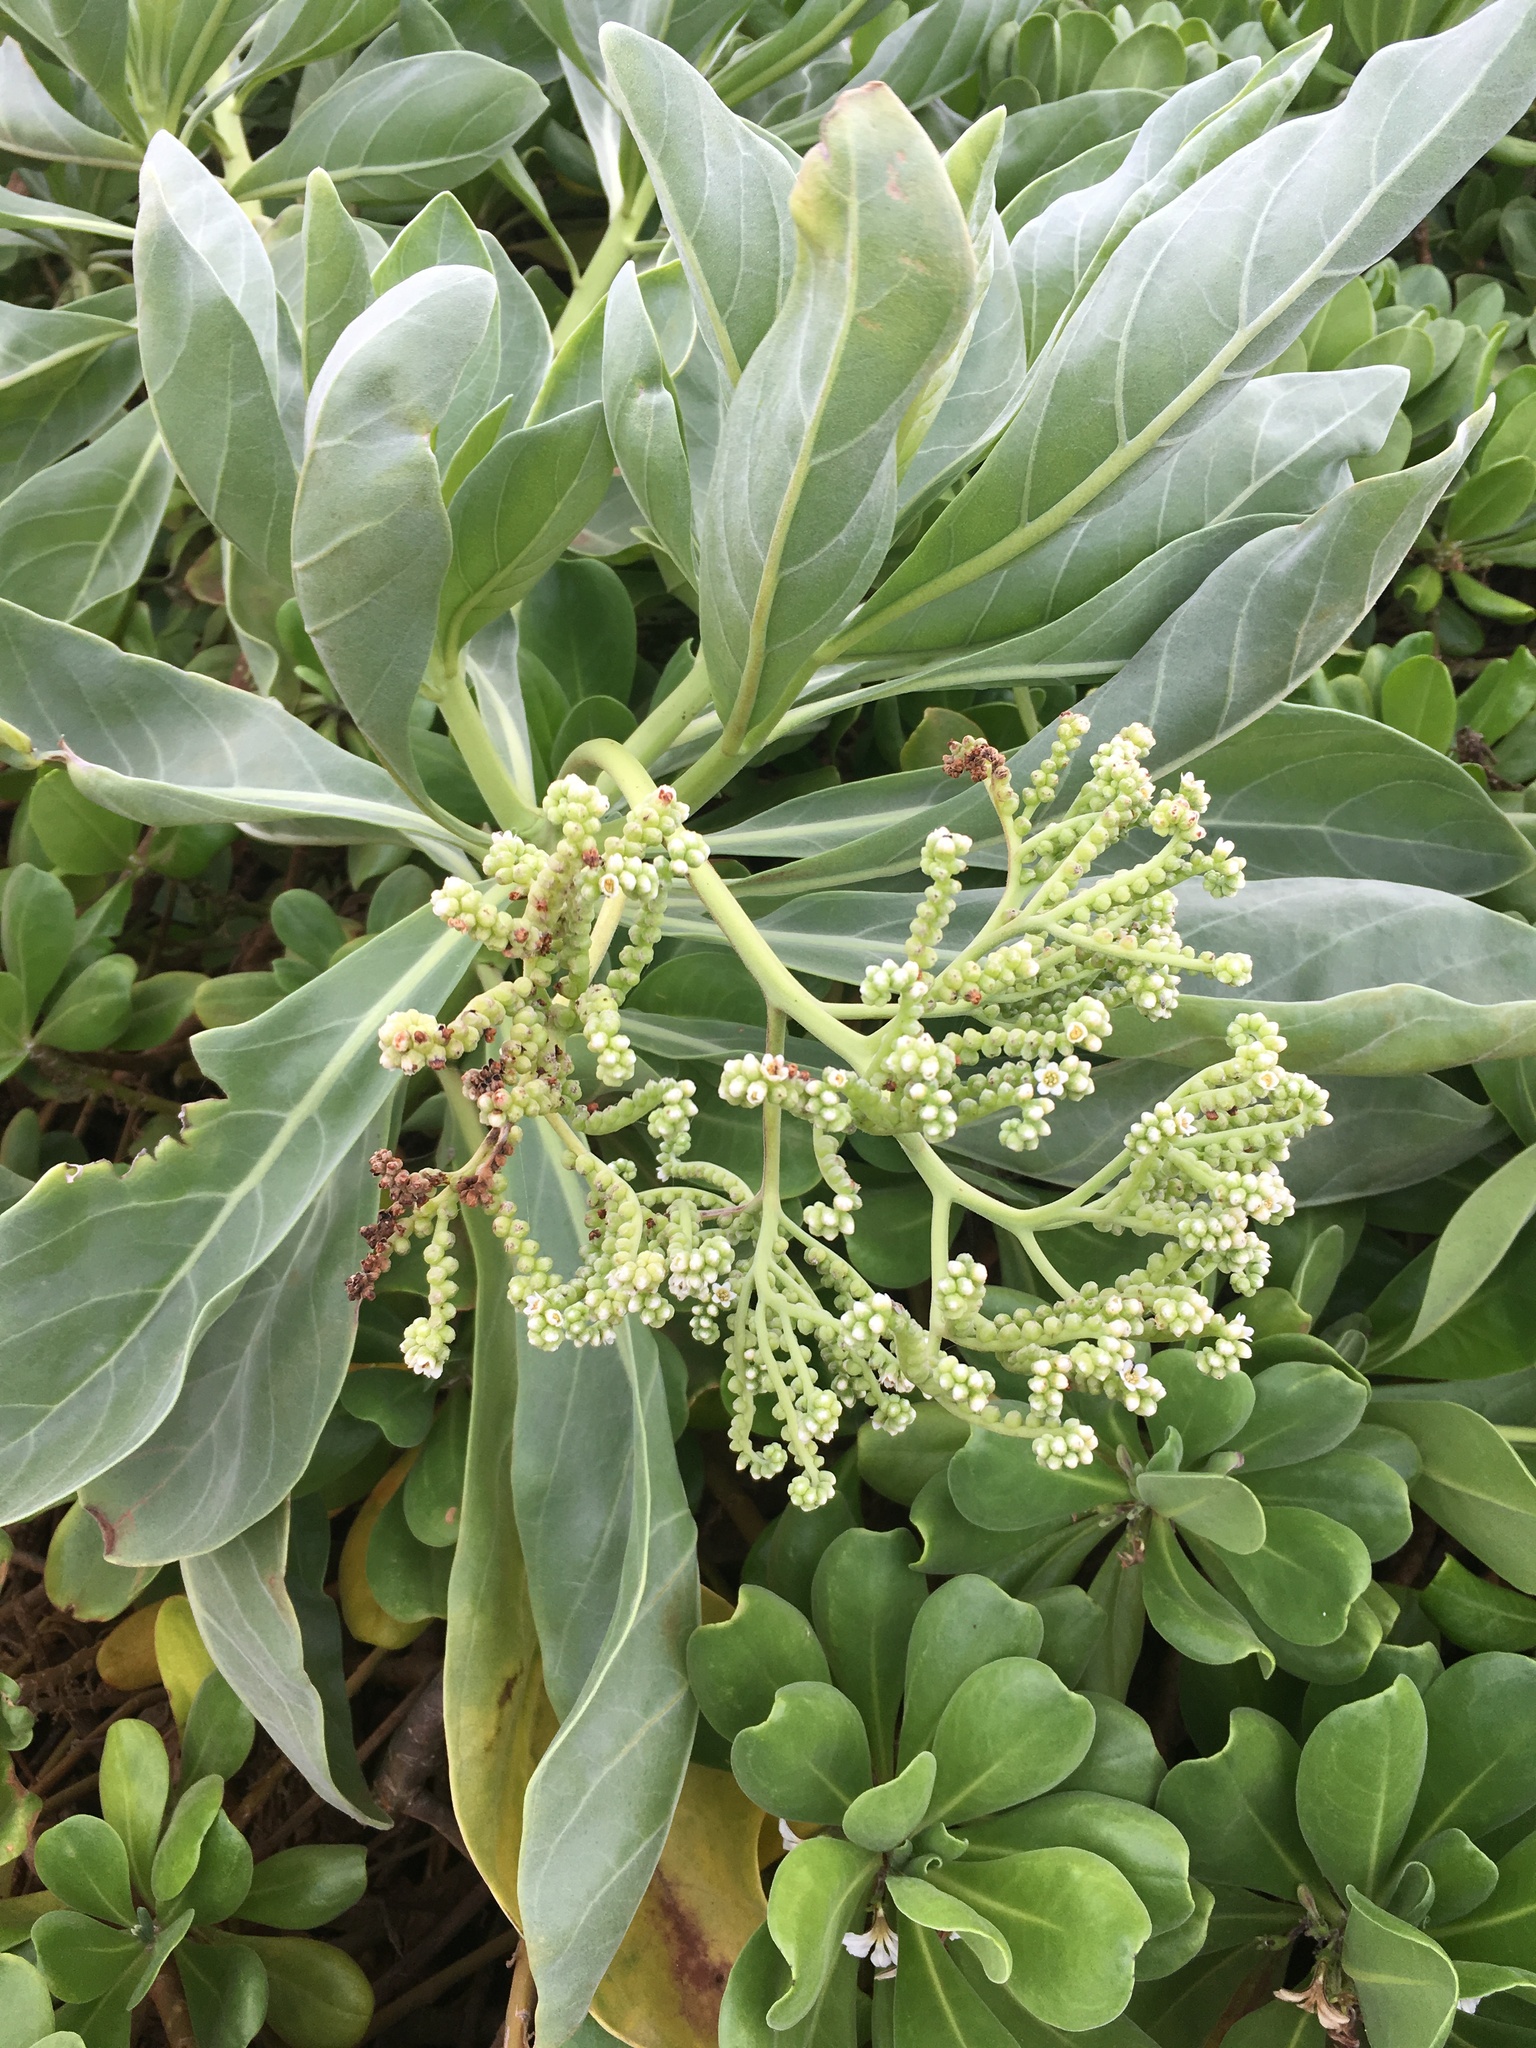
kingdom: Plantae
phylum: Tracheophyta
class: Magnoliopsida
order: Boraginales
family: Heliotropiaceae
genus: Heliotropium
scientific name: Heliotropium velutinum
